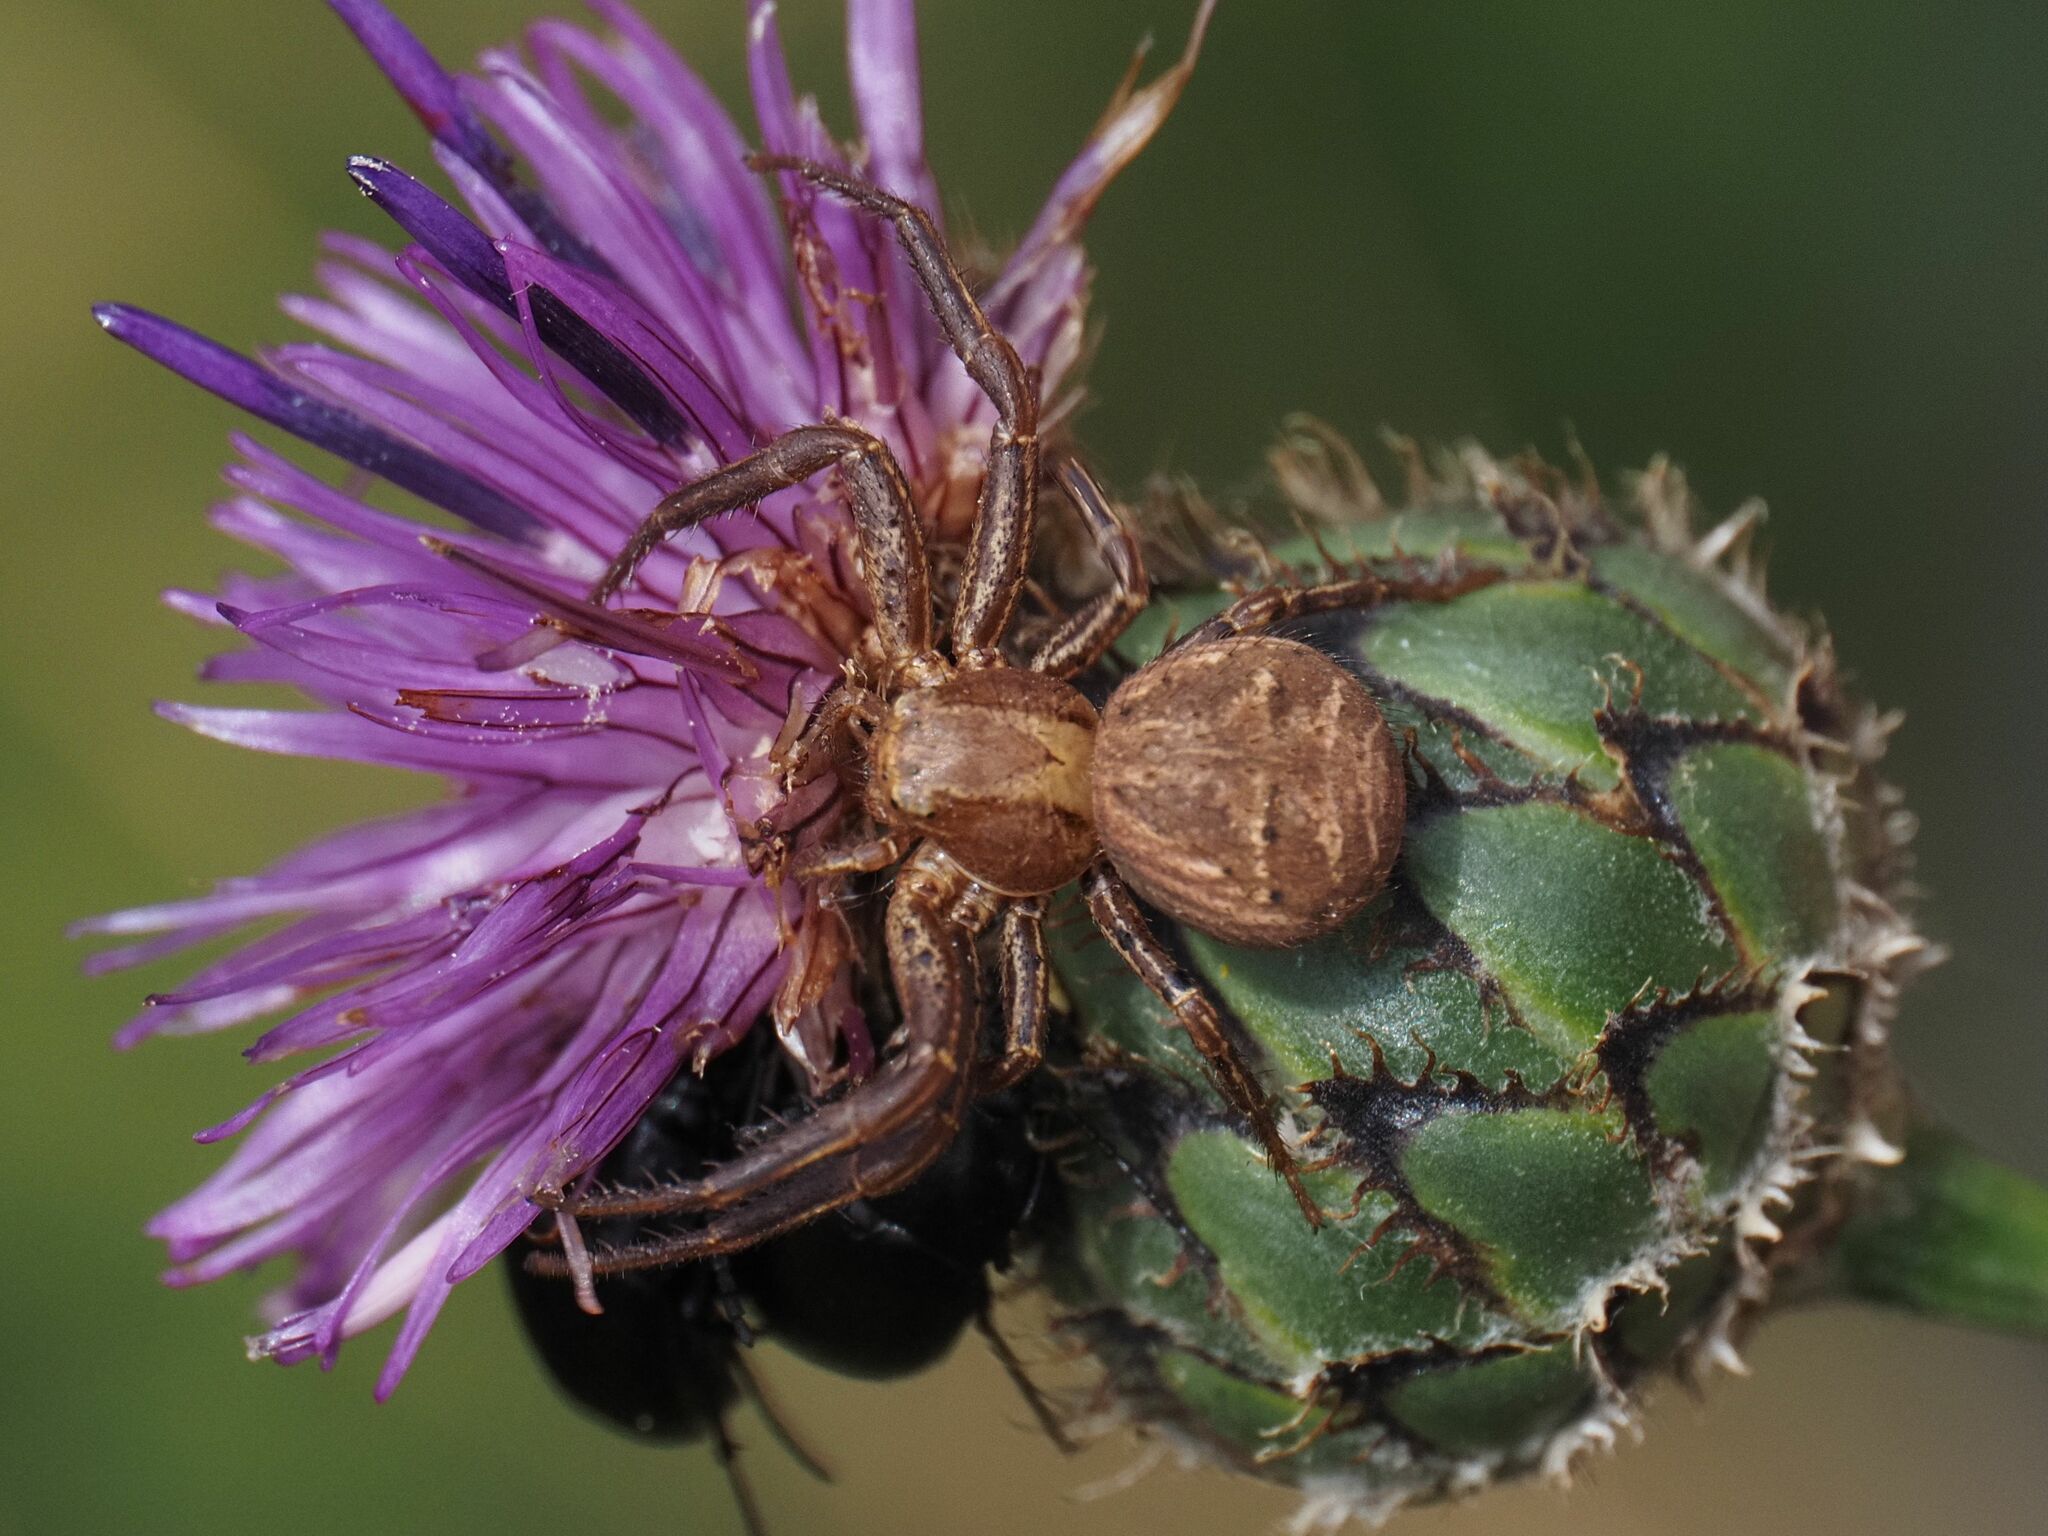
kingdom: Animalia
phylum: Arthropoda
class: Arachnida
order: Araneae
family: Thomisidae
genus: Xysticus
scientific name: Xysticus
